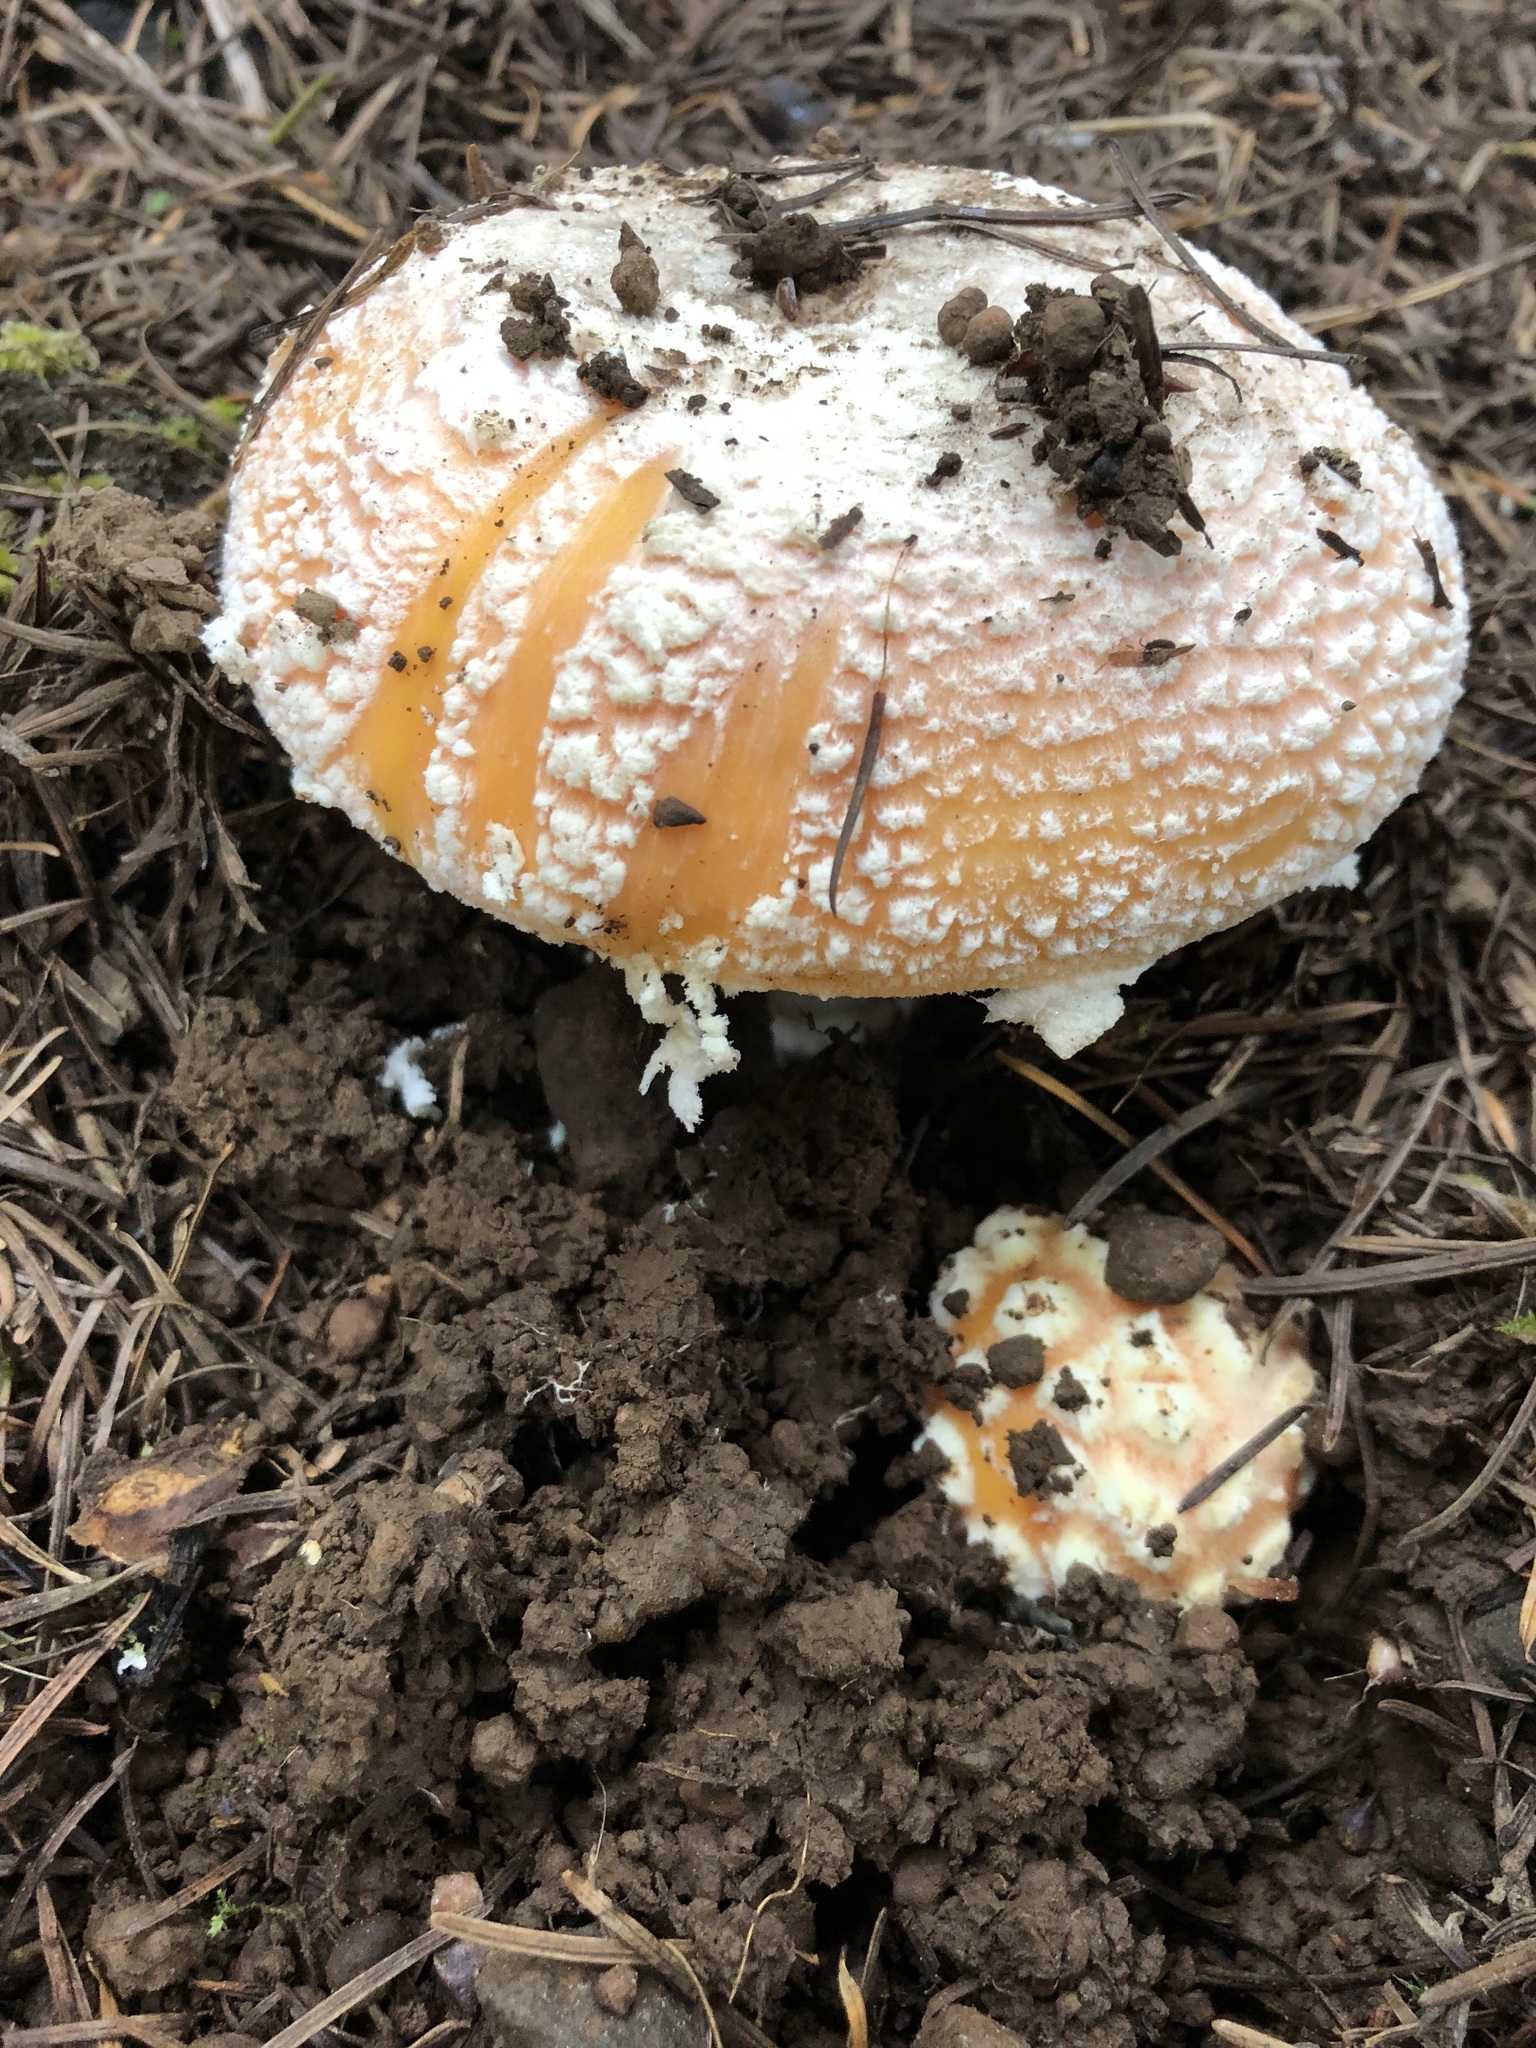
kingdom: Fungi
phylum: Basidiomycota
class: Agaricomycetes
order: Agaricales
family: Amanitaceae
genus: Amanita
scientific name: Amanita aprica
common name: Sunshine amanita
